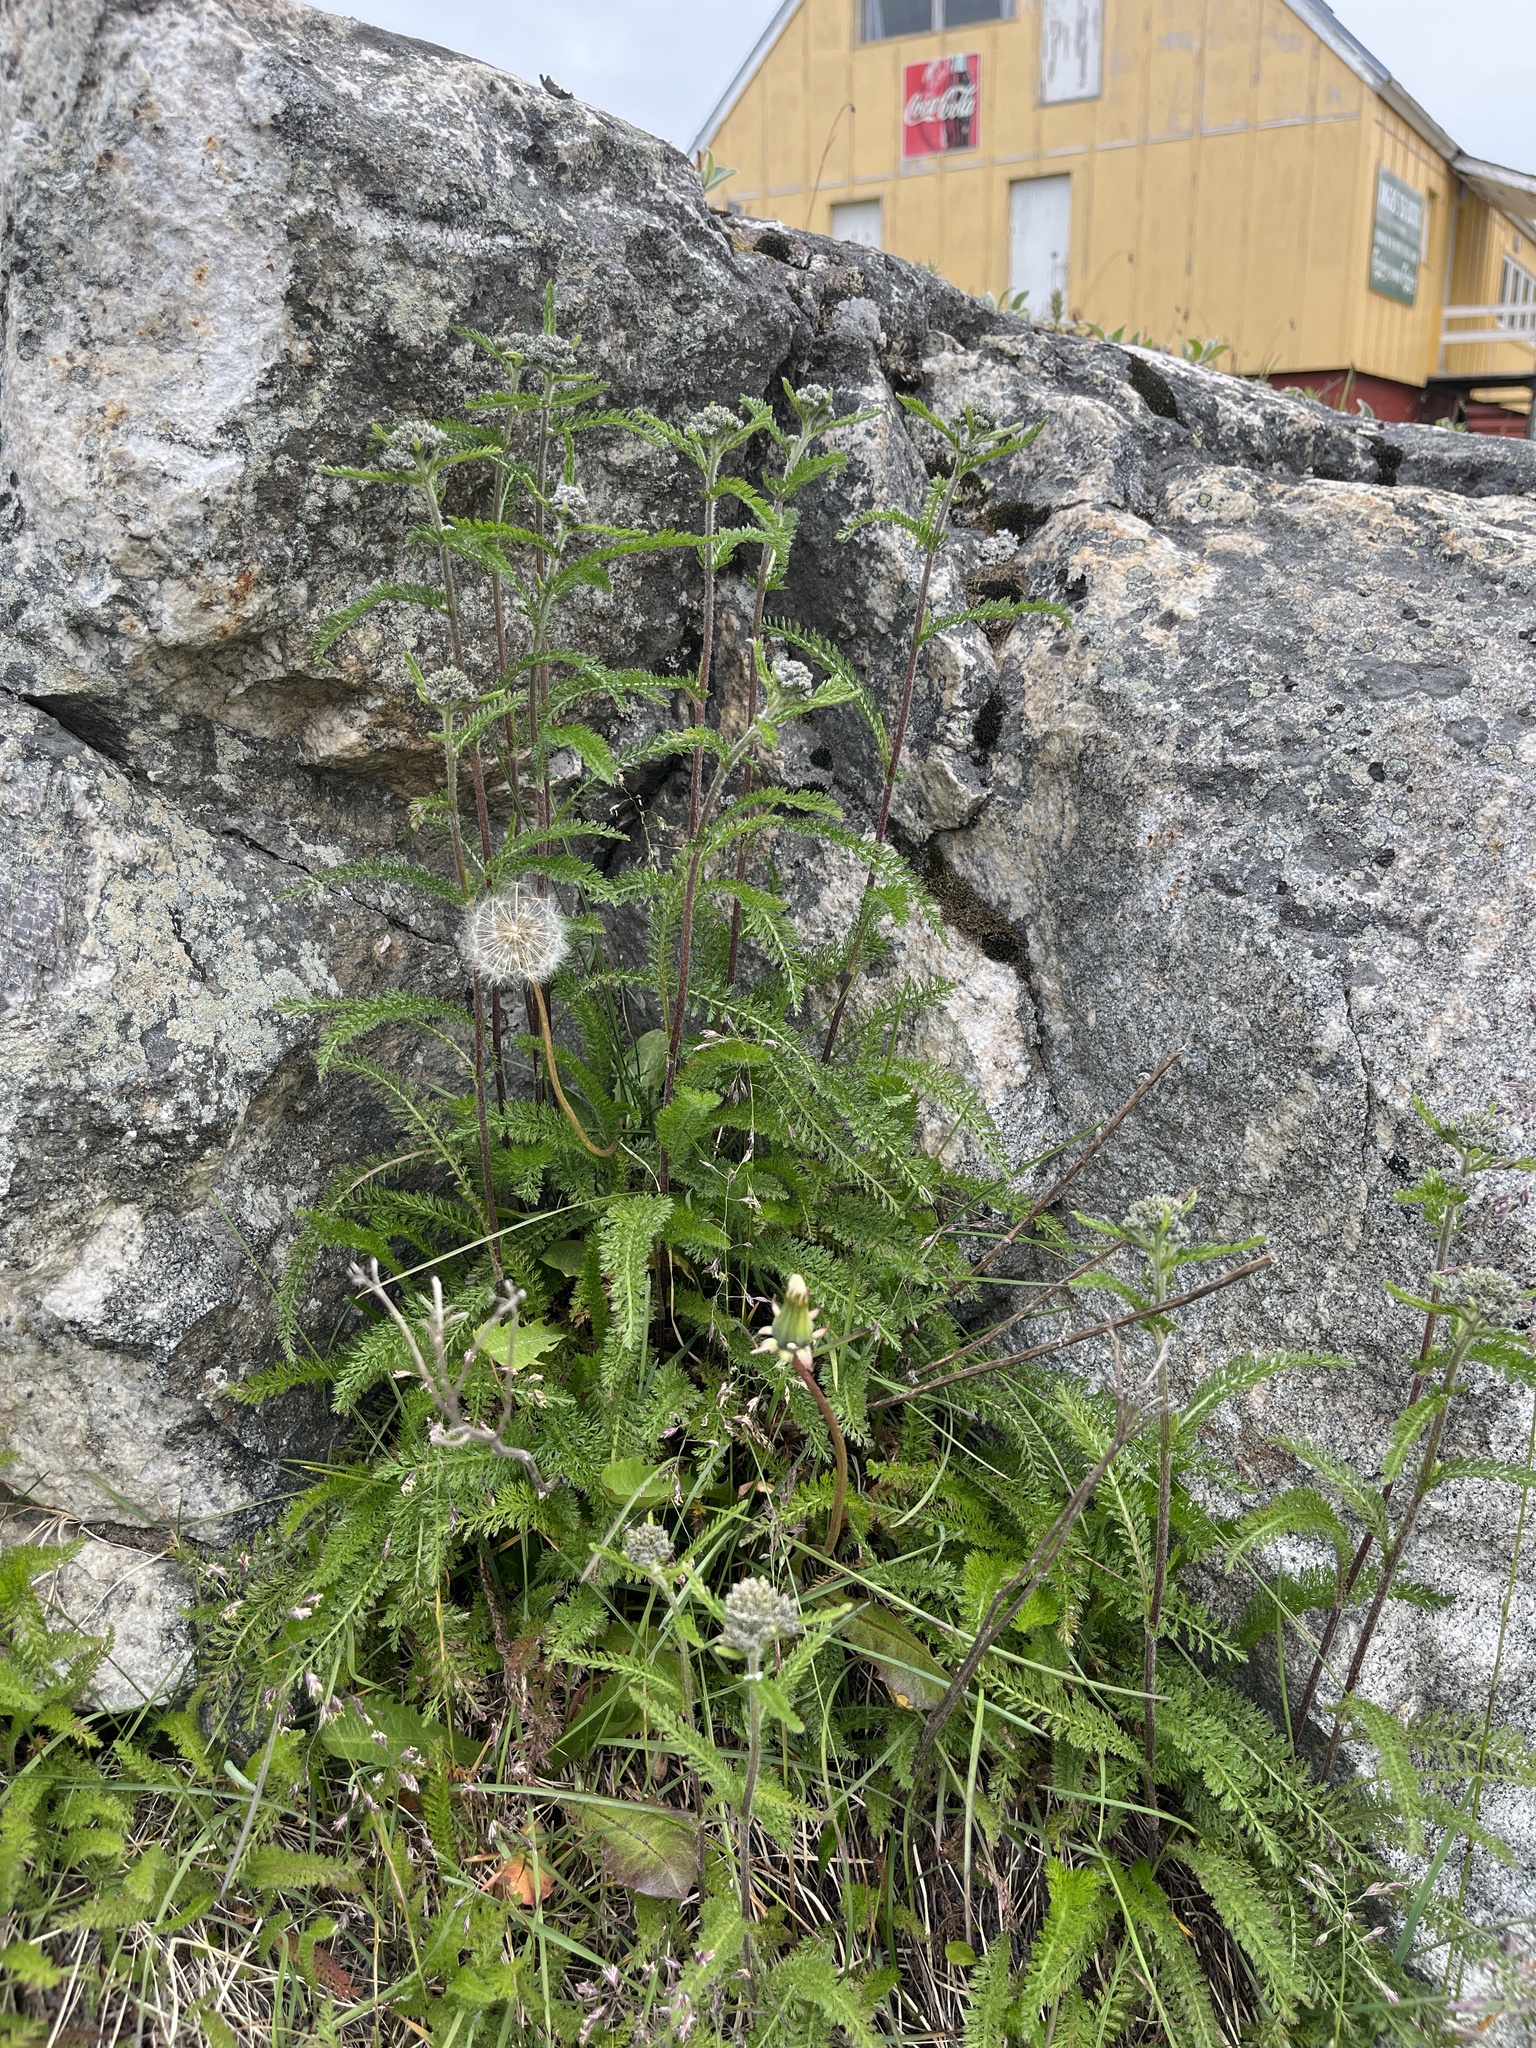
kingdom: Plantae
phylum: Tracheophyta
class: Magnoliopsida
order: Asterales
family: Asteraceae
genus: Achillea
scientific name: Achillea millefolium
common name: Yarrow
